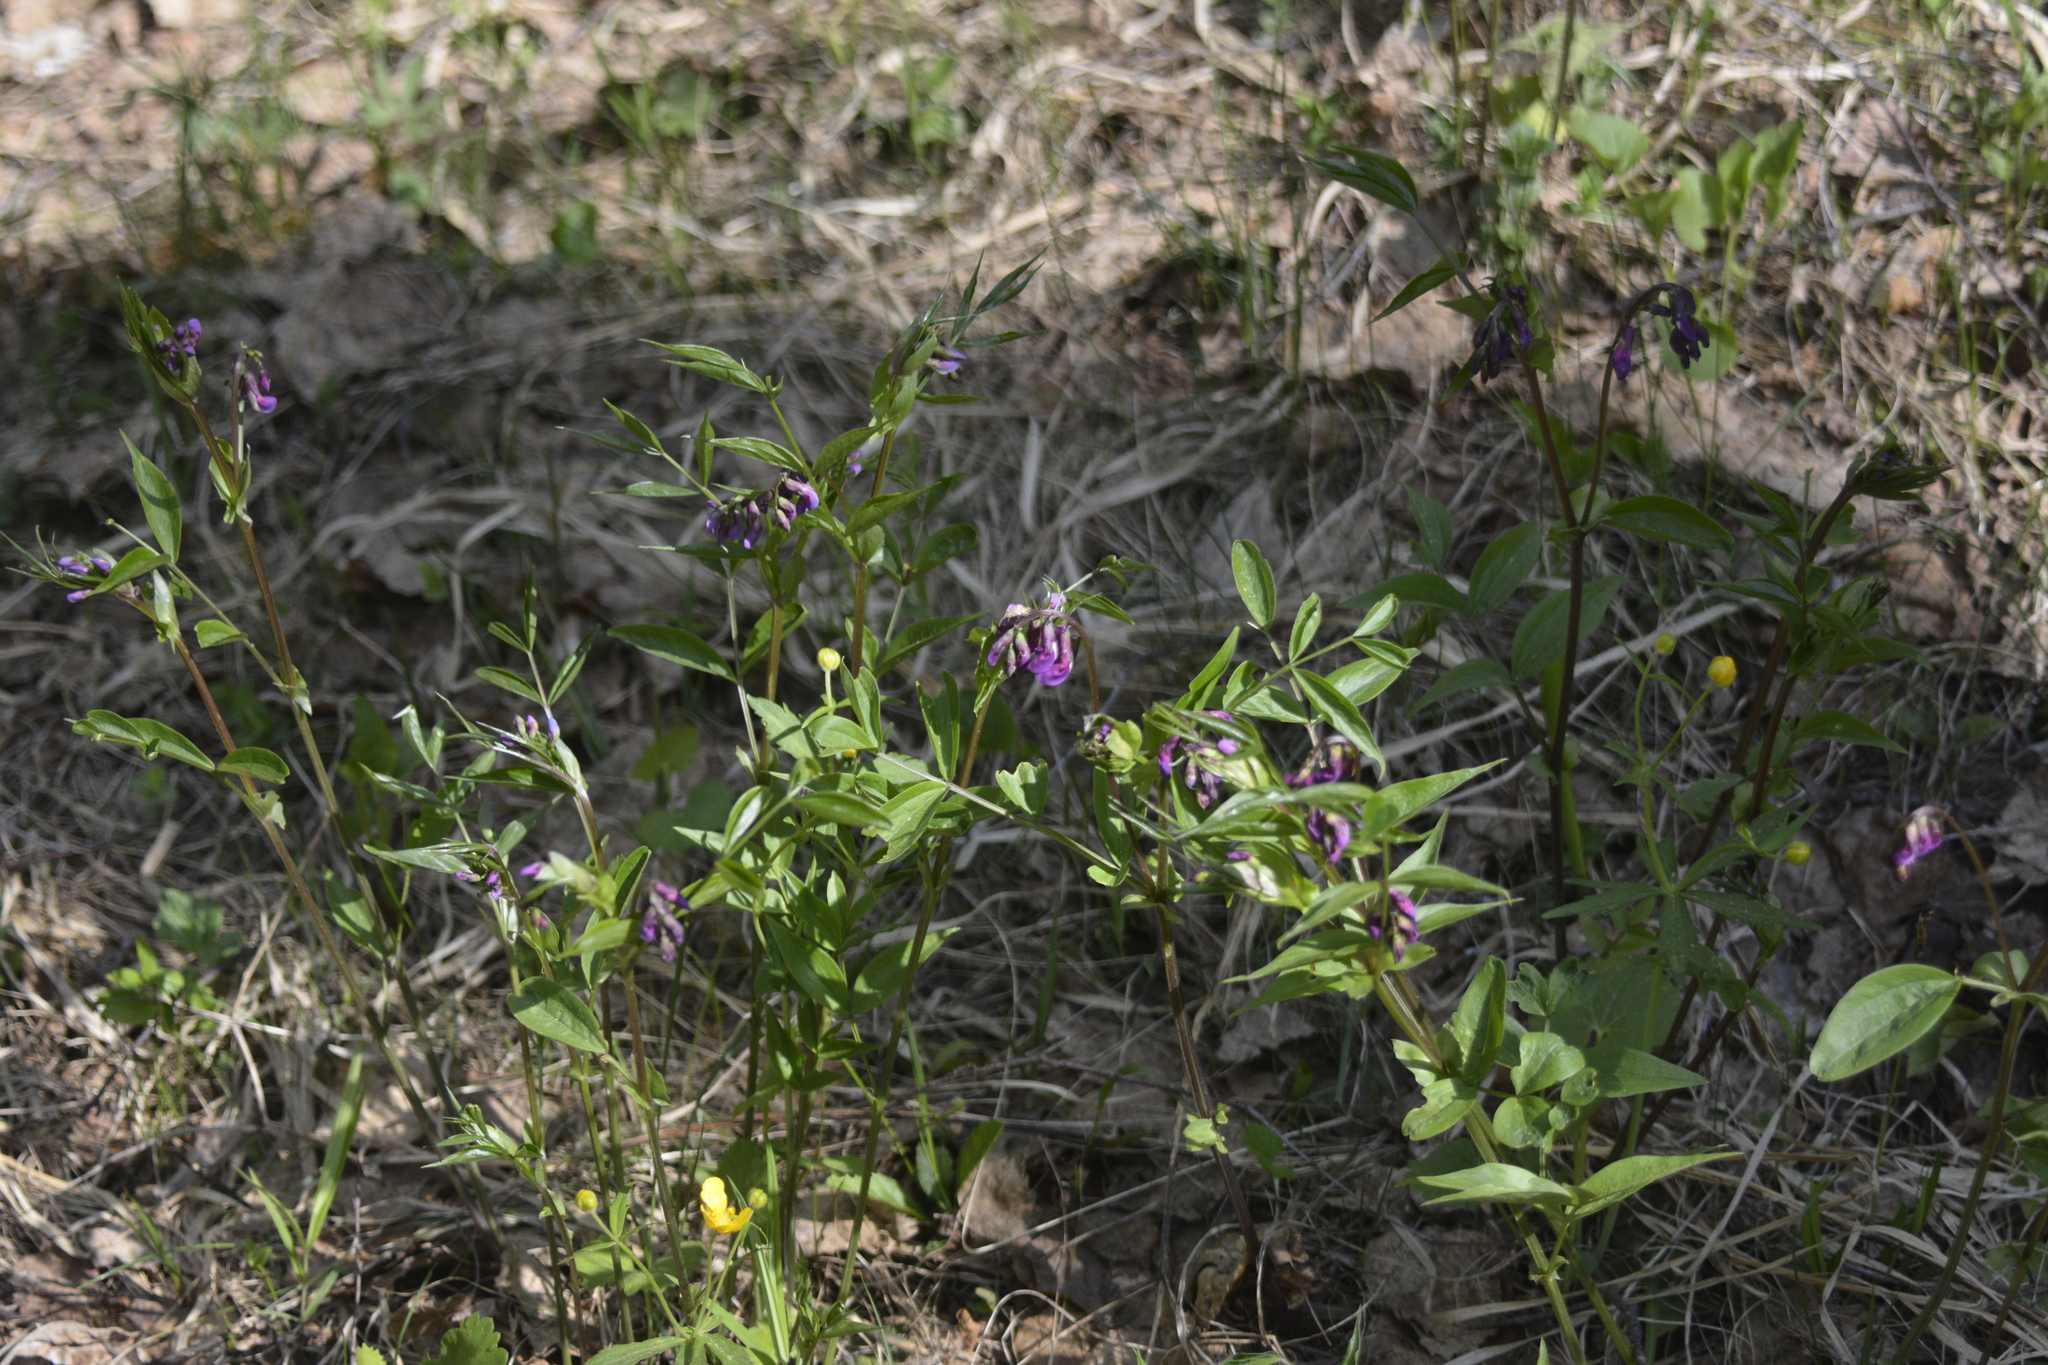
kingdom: Plantae
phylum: Tracheophyta
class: Magnoliopsida
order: Fabales
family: Fabaceae
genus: Lathyrus
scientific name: Lathyrus vernus
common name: Spring pea
